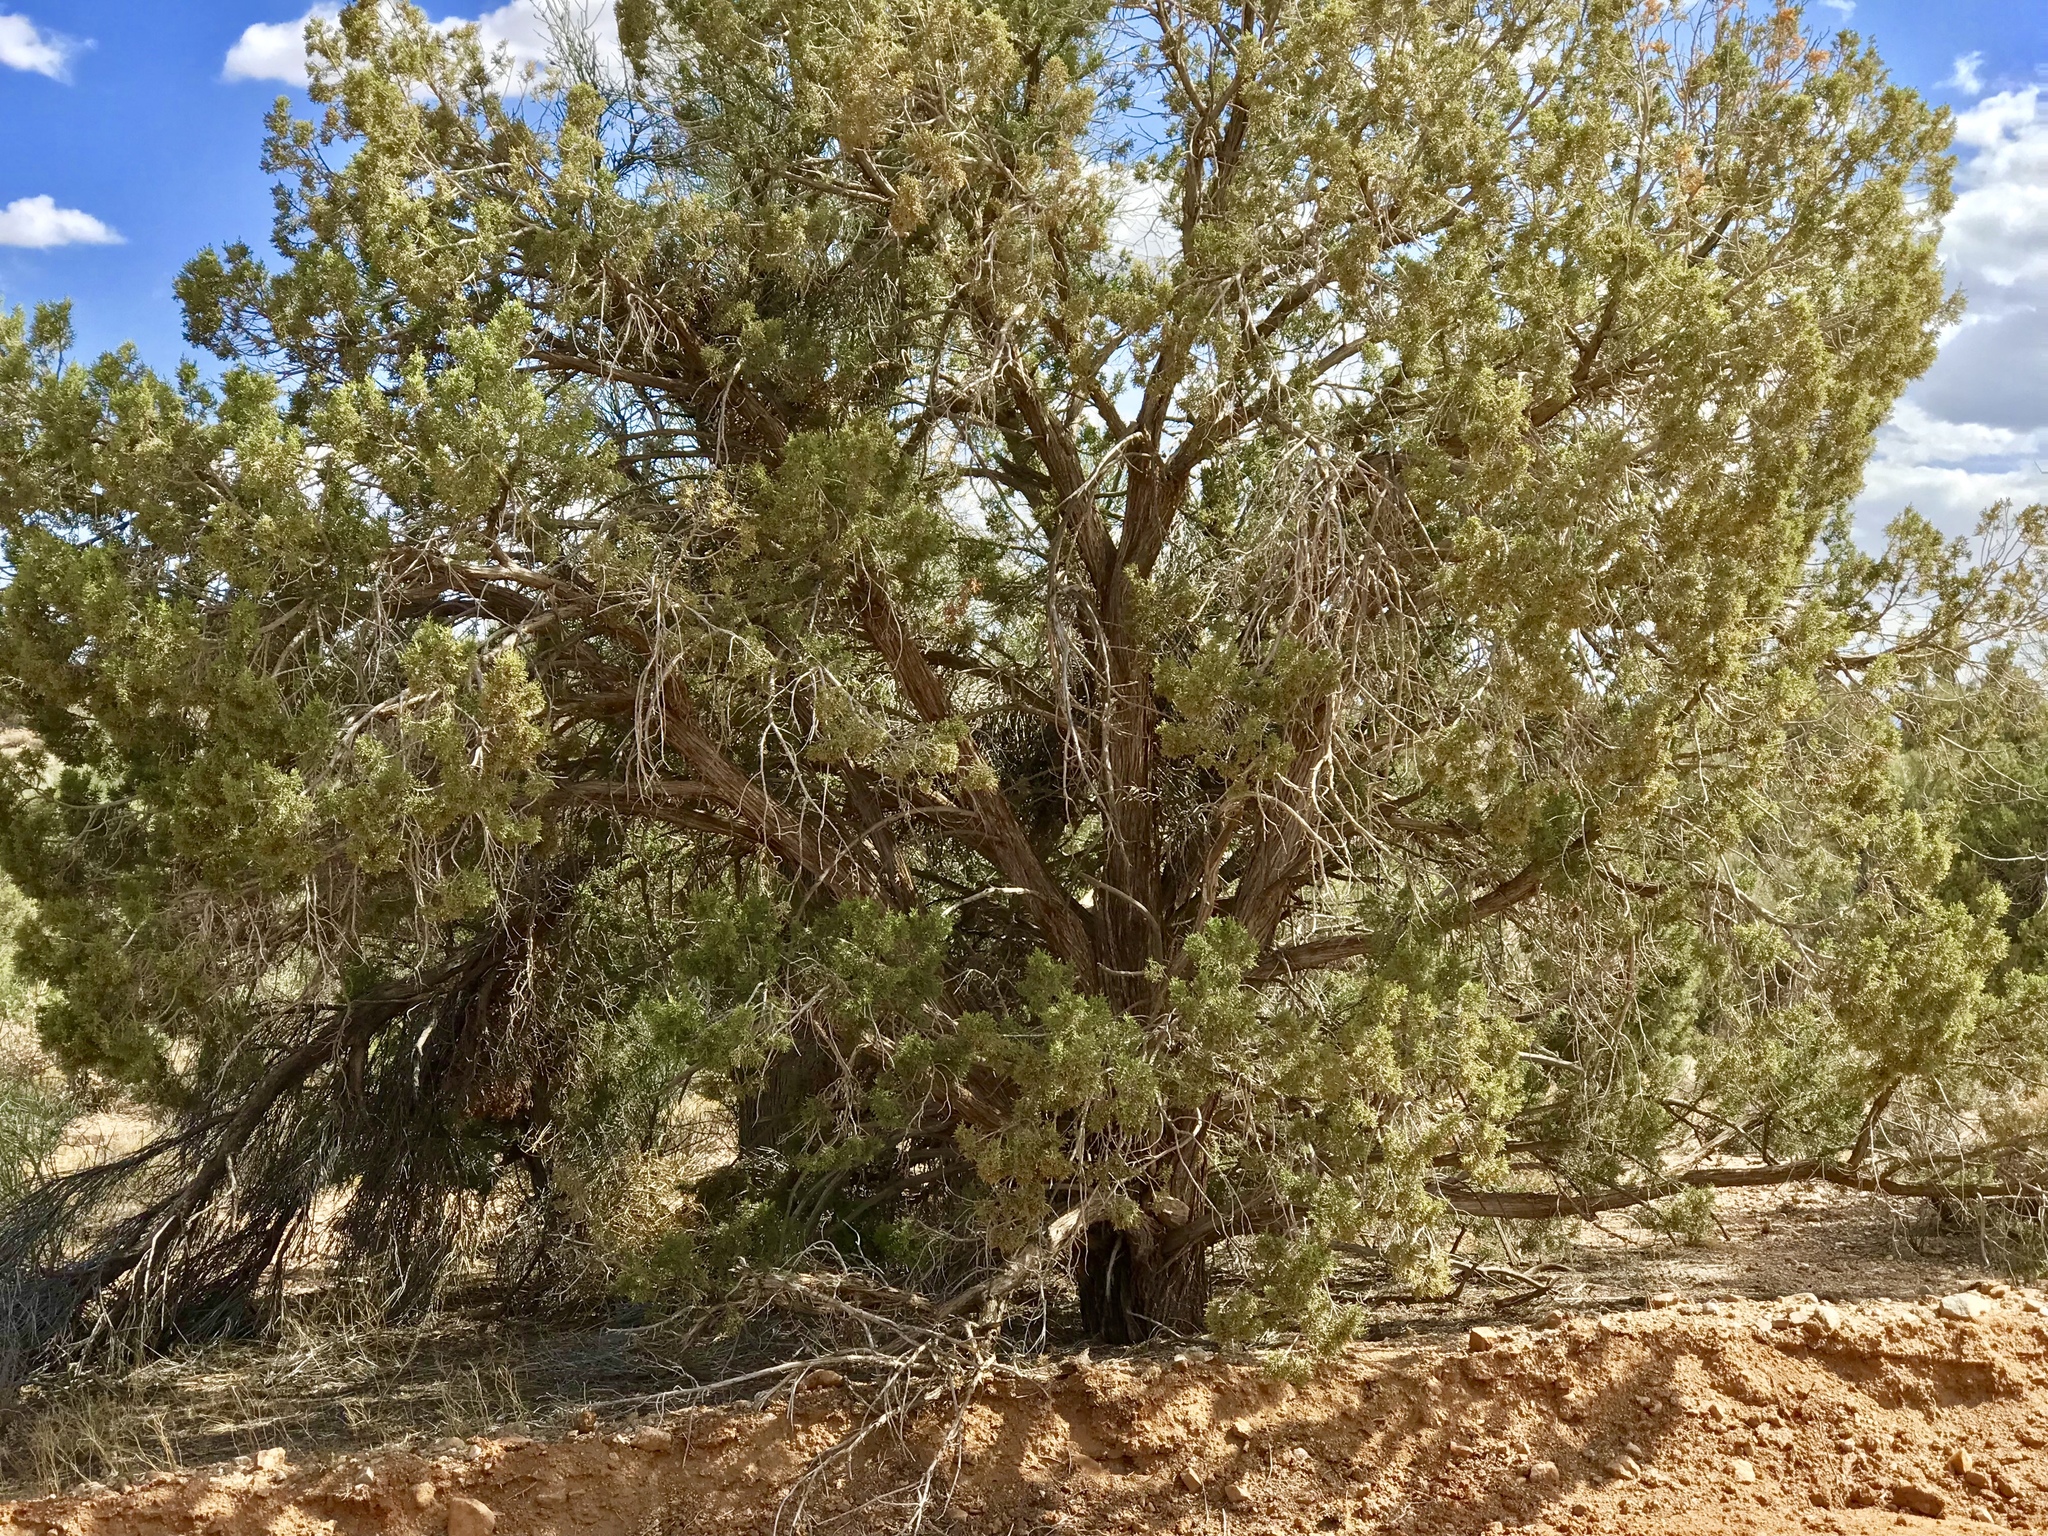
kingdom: Plantae
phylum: Tracheophyta
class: Pinopsida
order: Pinales
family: Cupressaceae
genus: Juniperus
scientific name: Juniperus osteosperma
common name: Utah juniper
